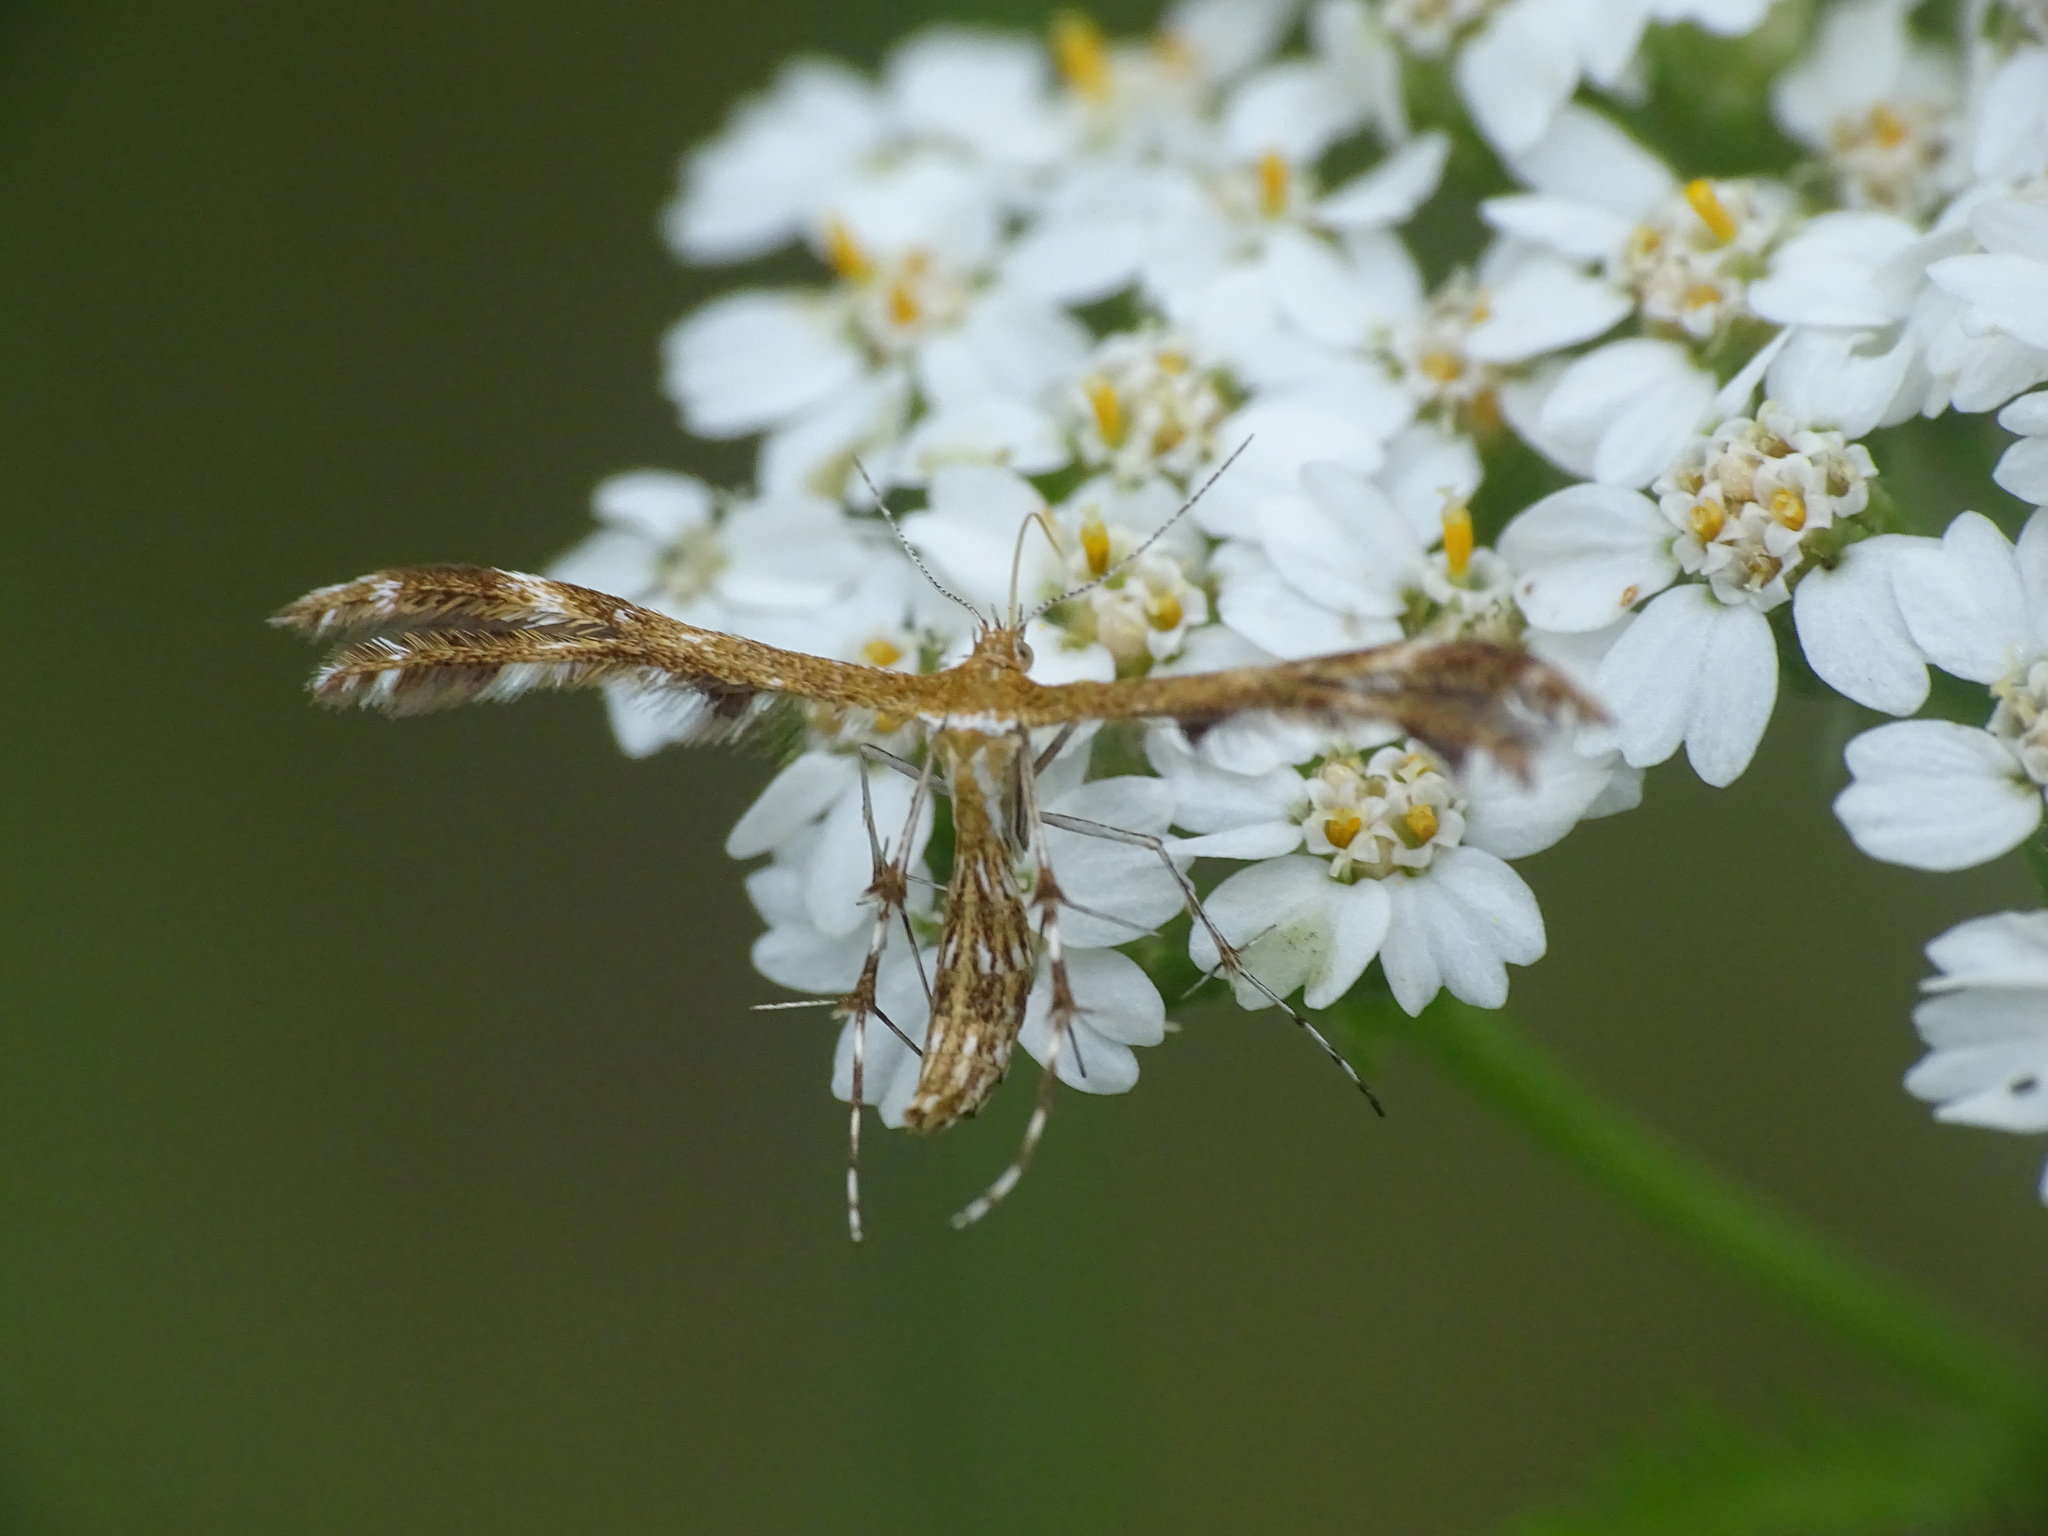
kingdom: Animalia
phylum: Arthropoda
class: Insecta
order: Lepidoptera
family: Pterophoridae
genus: Dejongia
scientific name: Dejongia lobidactylus
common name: Lobed plume moth
